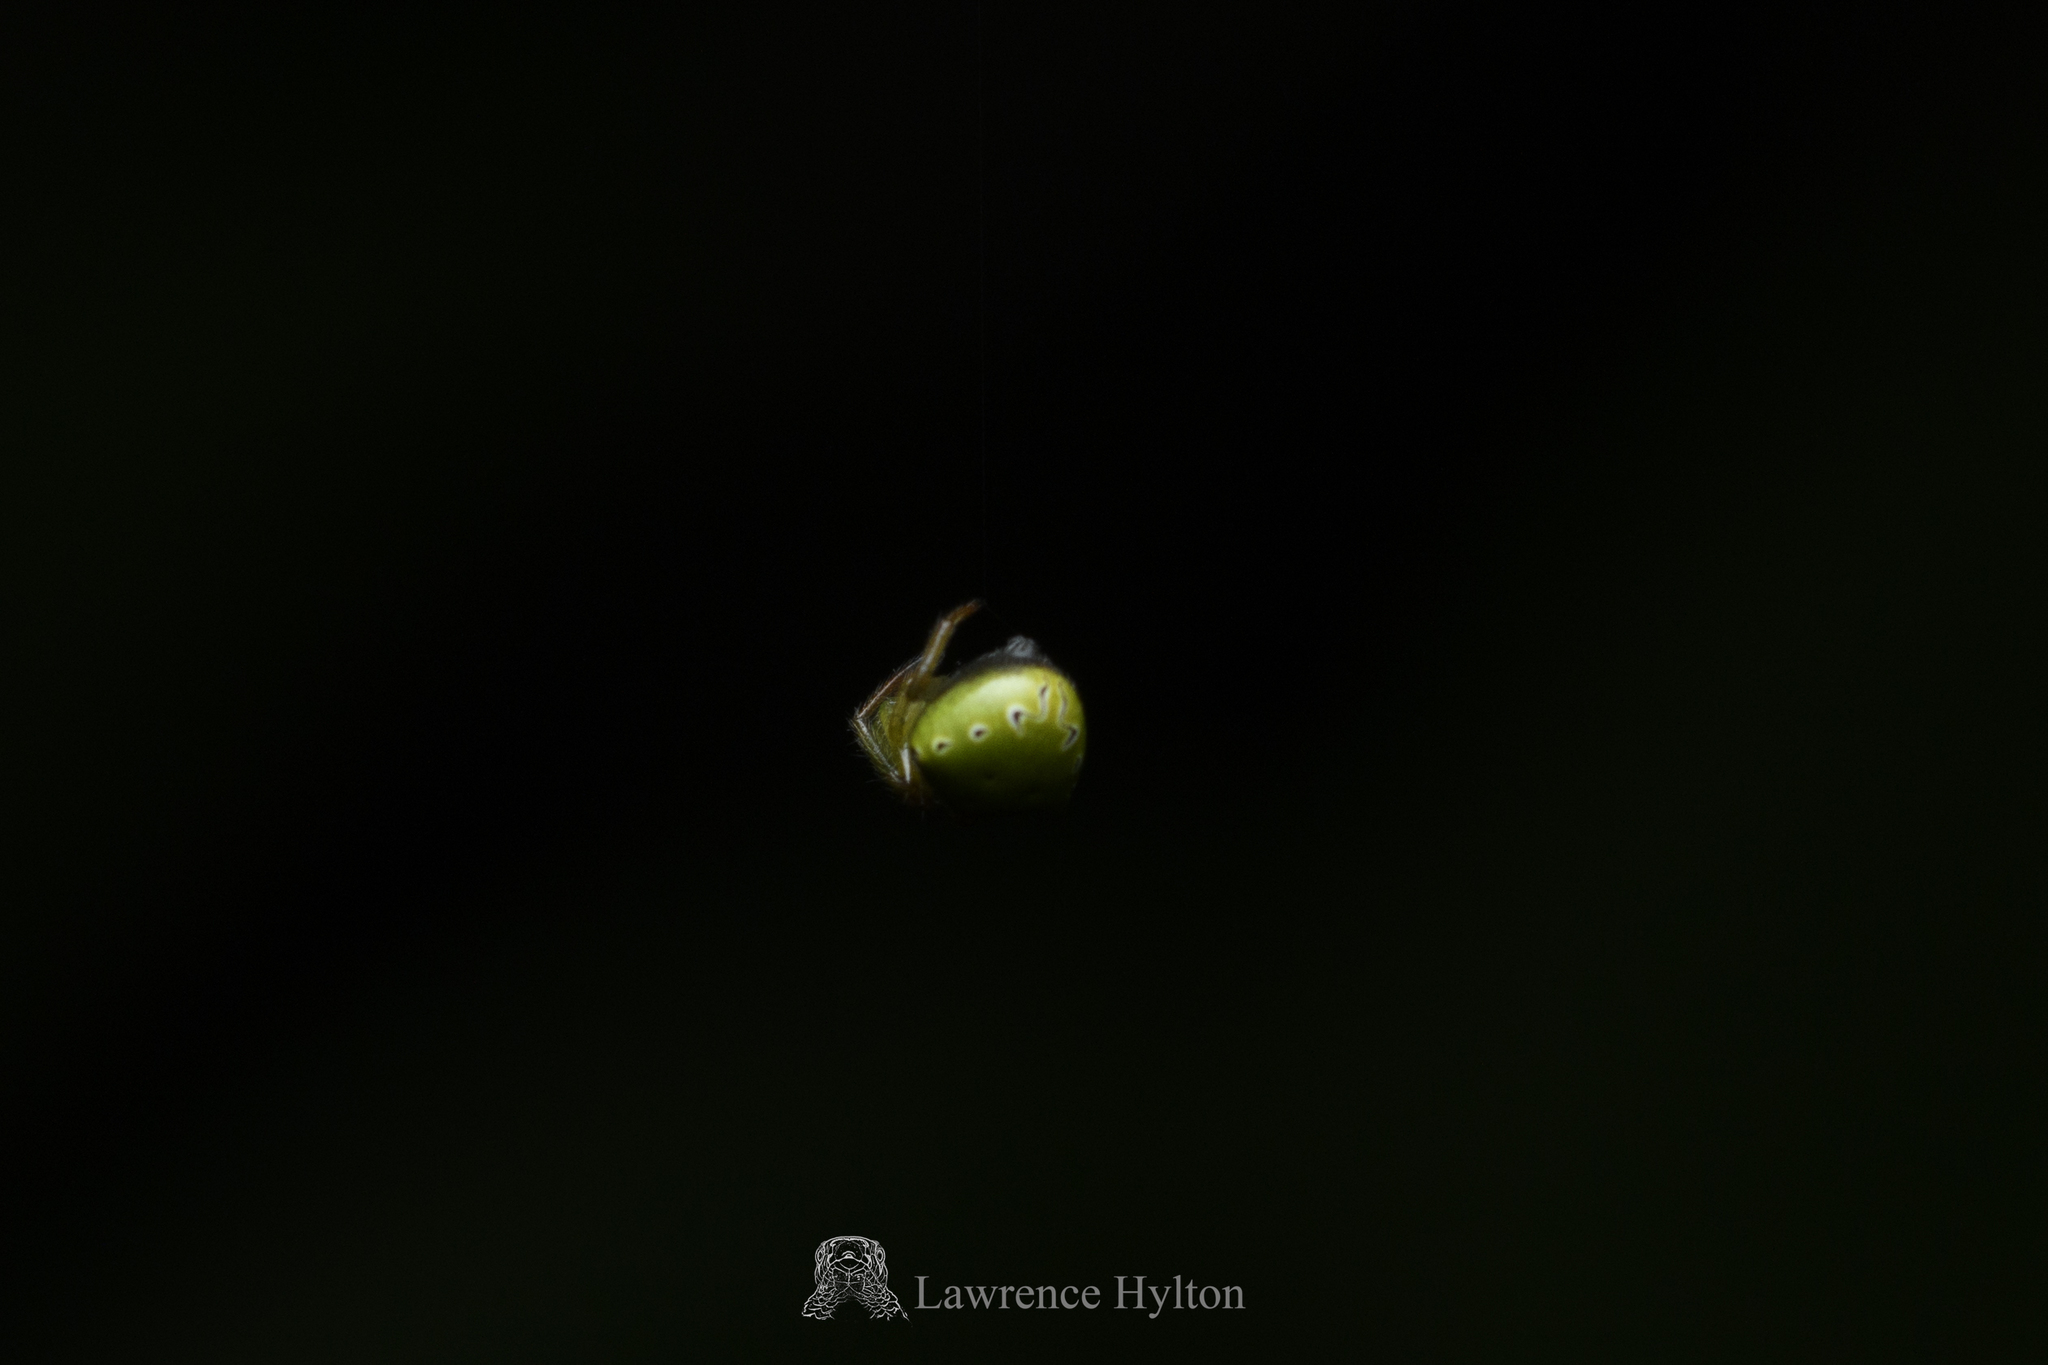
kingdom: Animalia
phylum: Arthropoda
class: Arachnida
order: Araneae
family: Araneidae
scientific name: Araneidae
